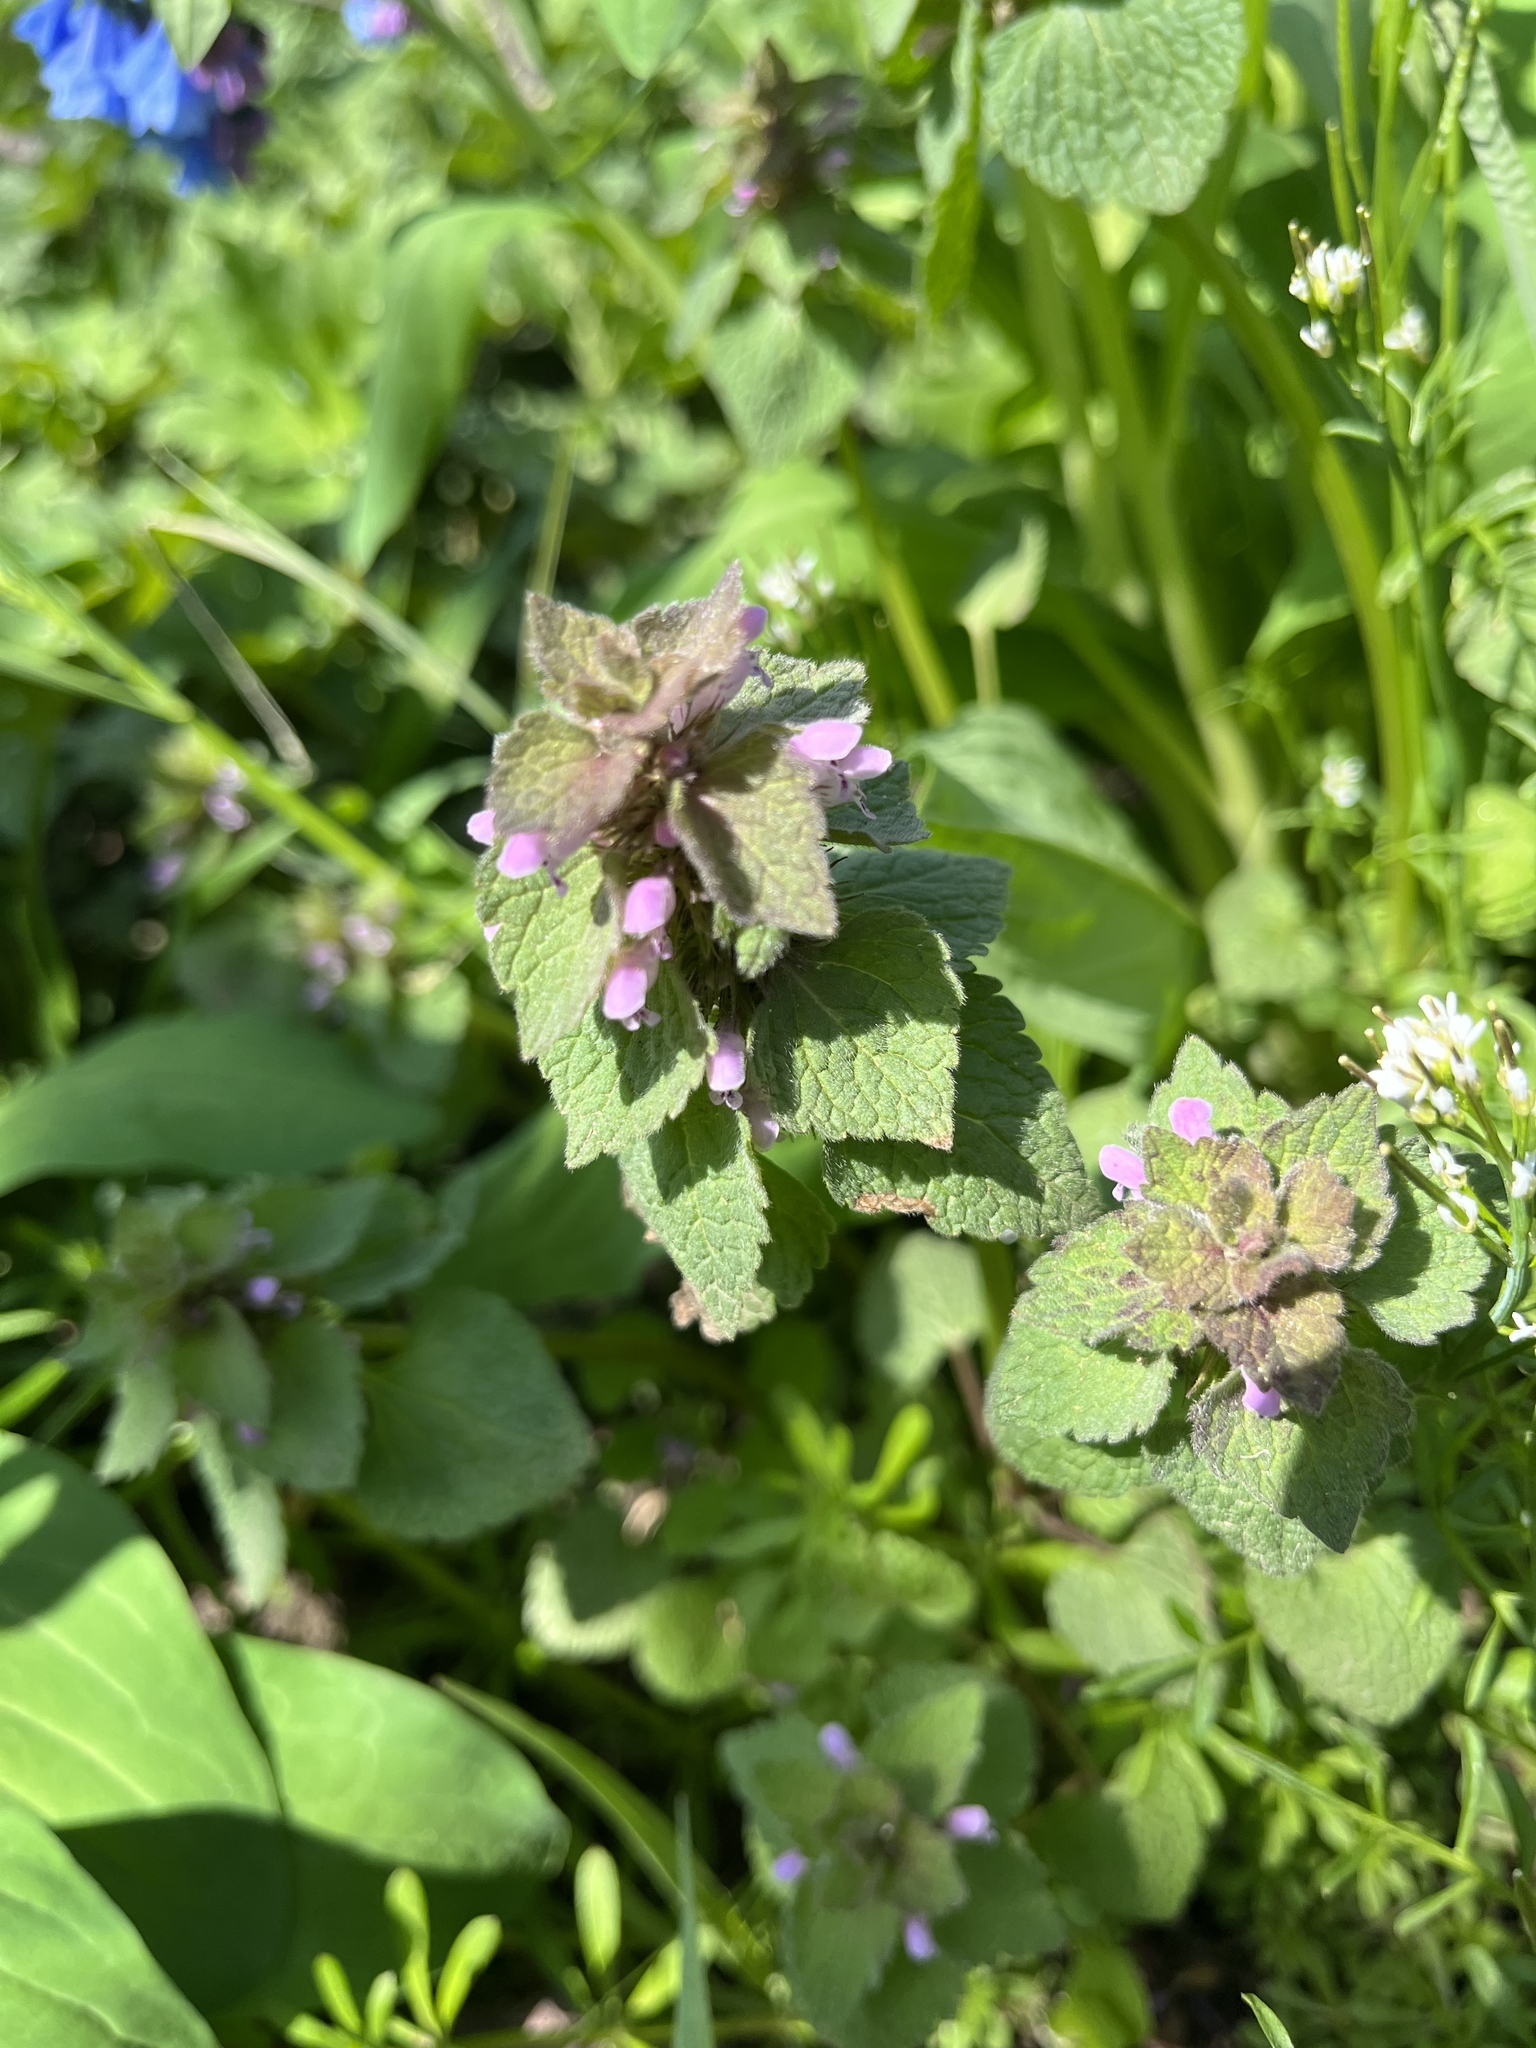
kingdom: Plantae
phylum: Tracheophyta
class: Magnoliopsida
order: Lamiales
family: Lamiaceae
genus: Lamium
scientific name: Lamium purpureum
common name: Red dead-nettle
